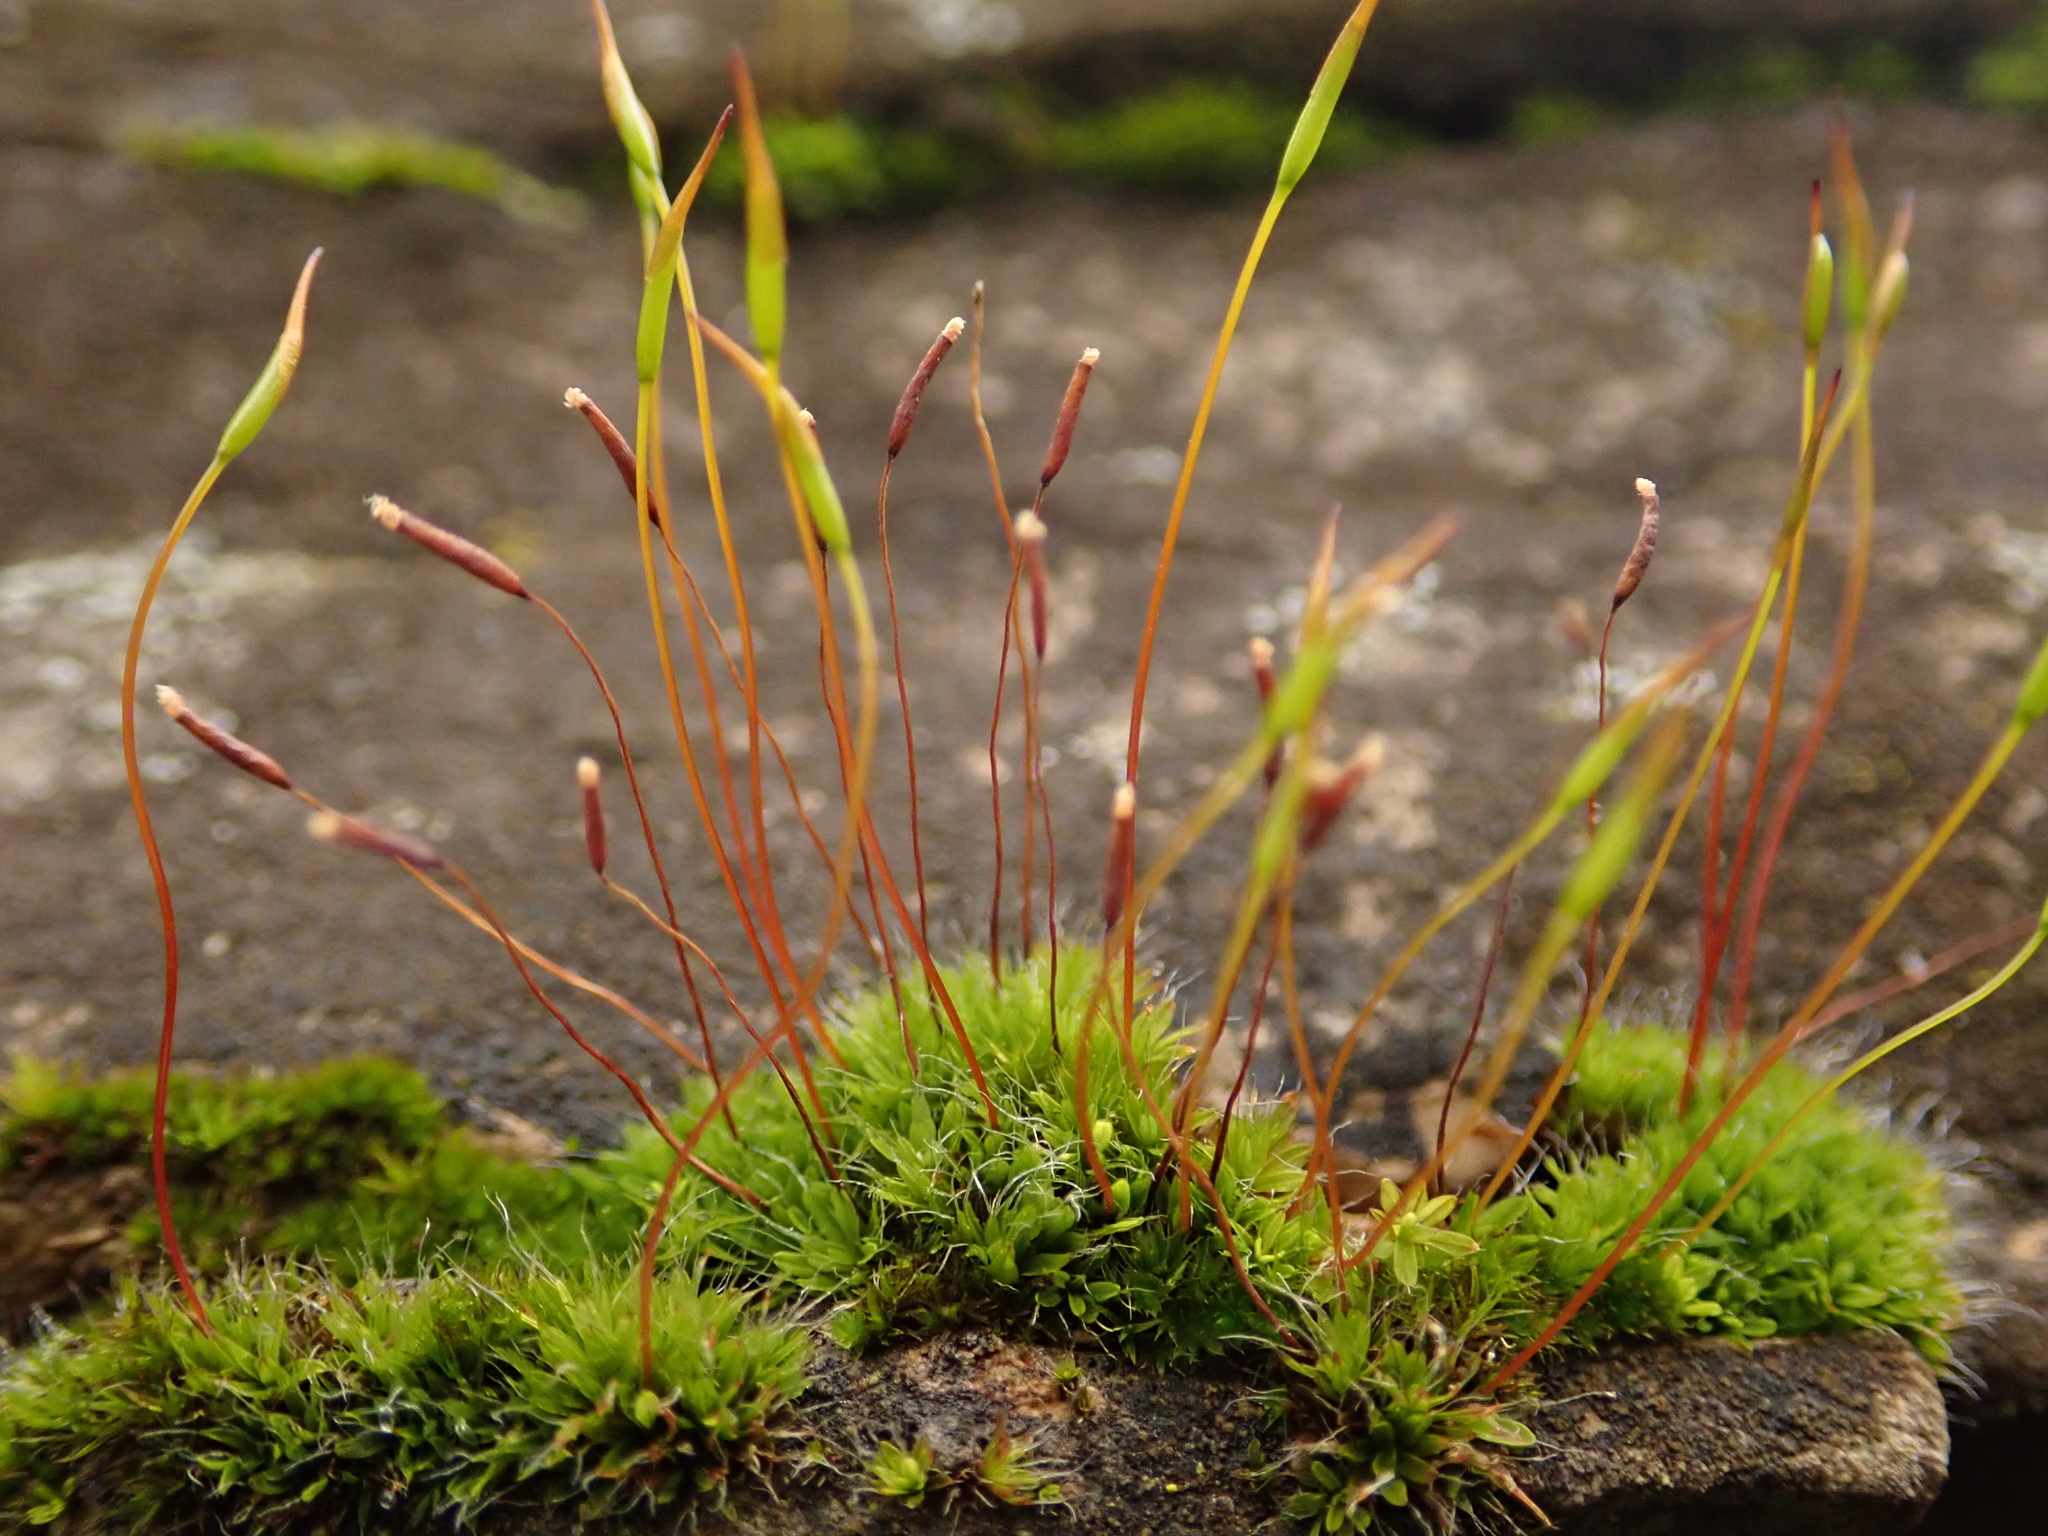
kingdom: Plantae
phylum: Bryophyta
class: Bryopsida
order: Pottiales
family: Pottiaceae
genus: Tortula
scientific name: Tortula muralis
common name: Wall screw-moss
